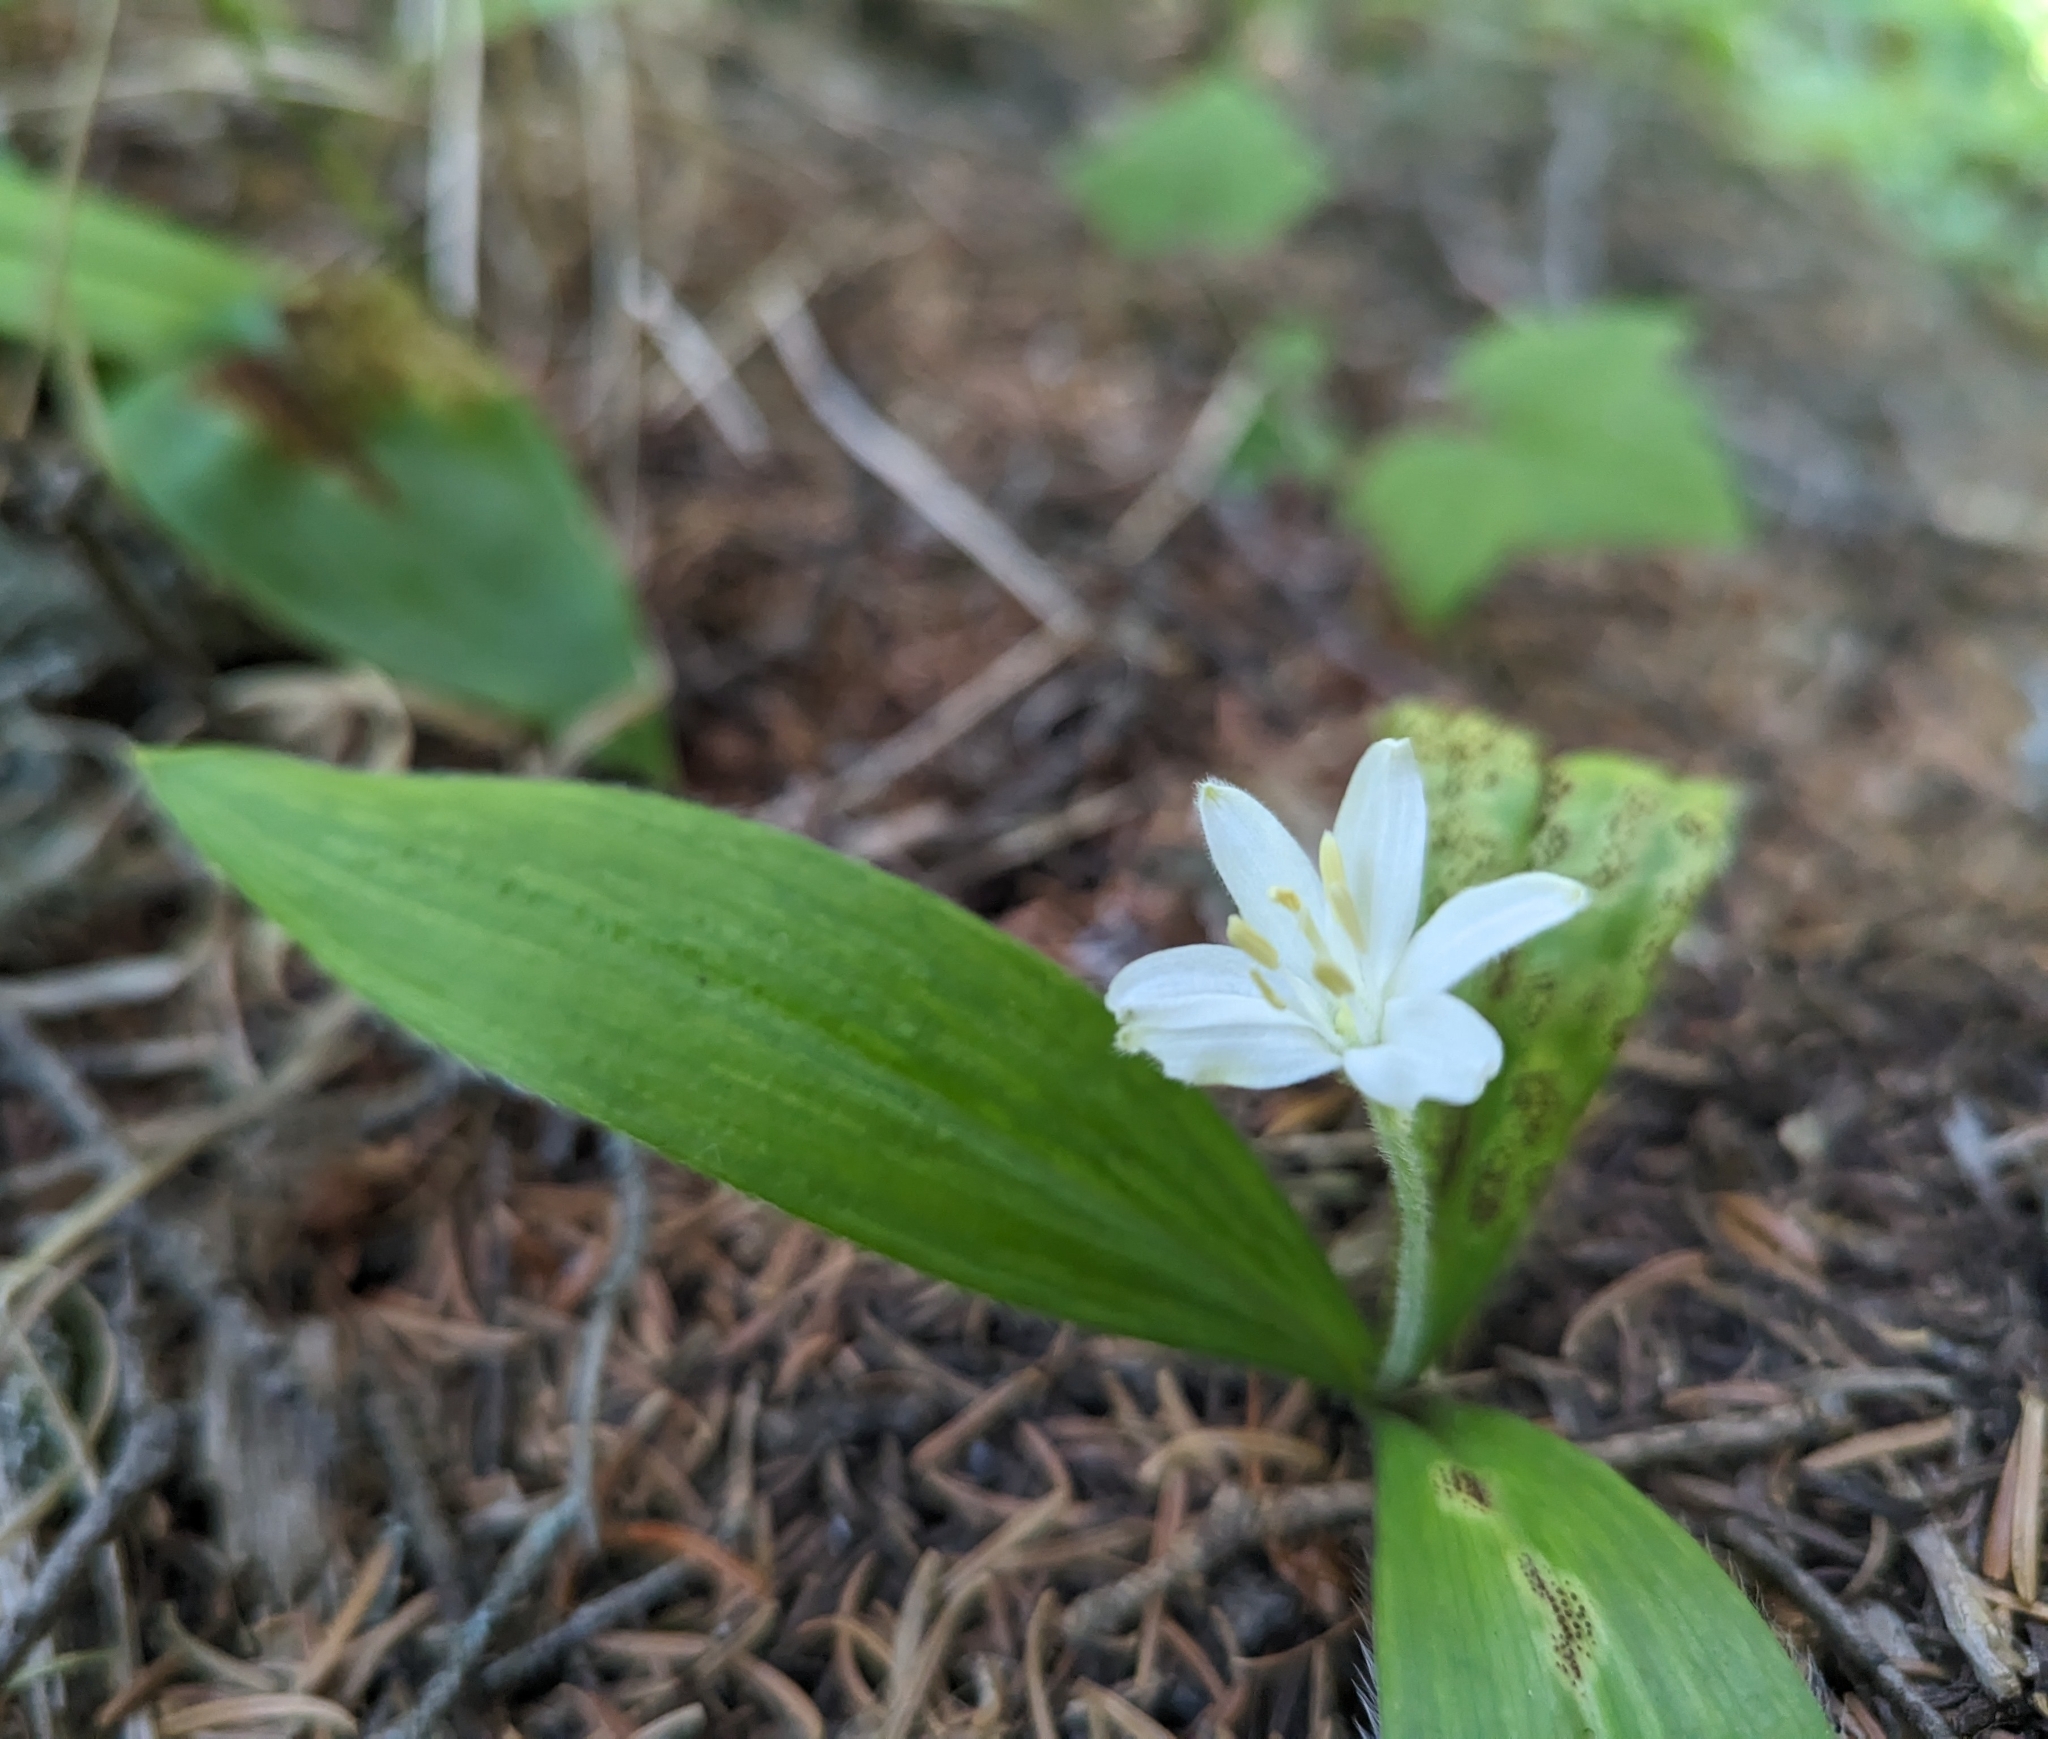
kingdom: Plantae
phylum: Tracheophyta
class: Liliopsida
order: Liliales
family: Liliaceae
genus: Clintonia
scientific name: Clintonia uniflora
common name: Queen's cup
